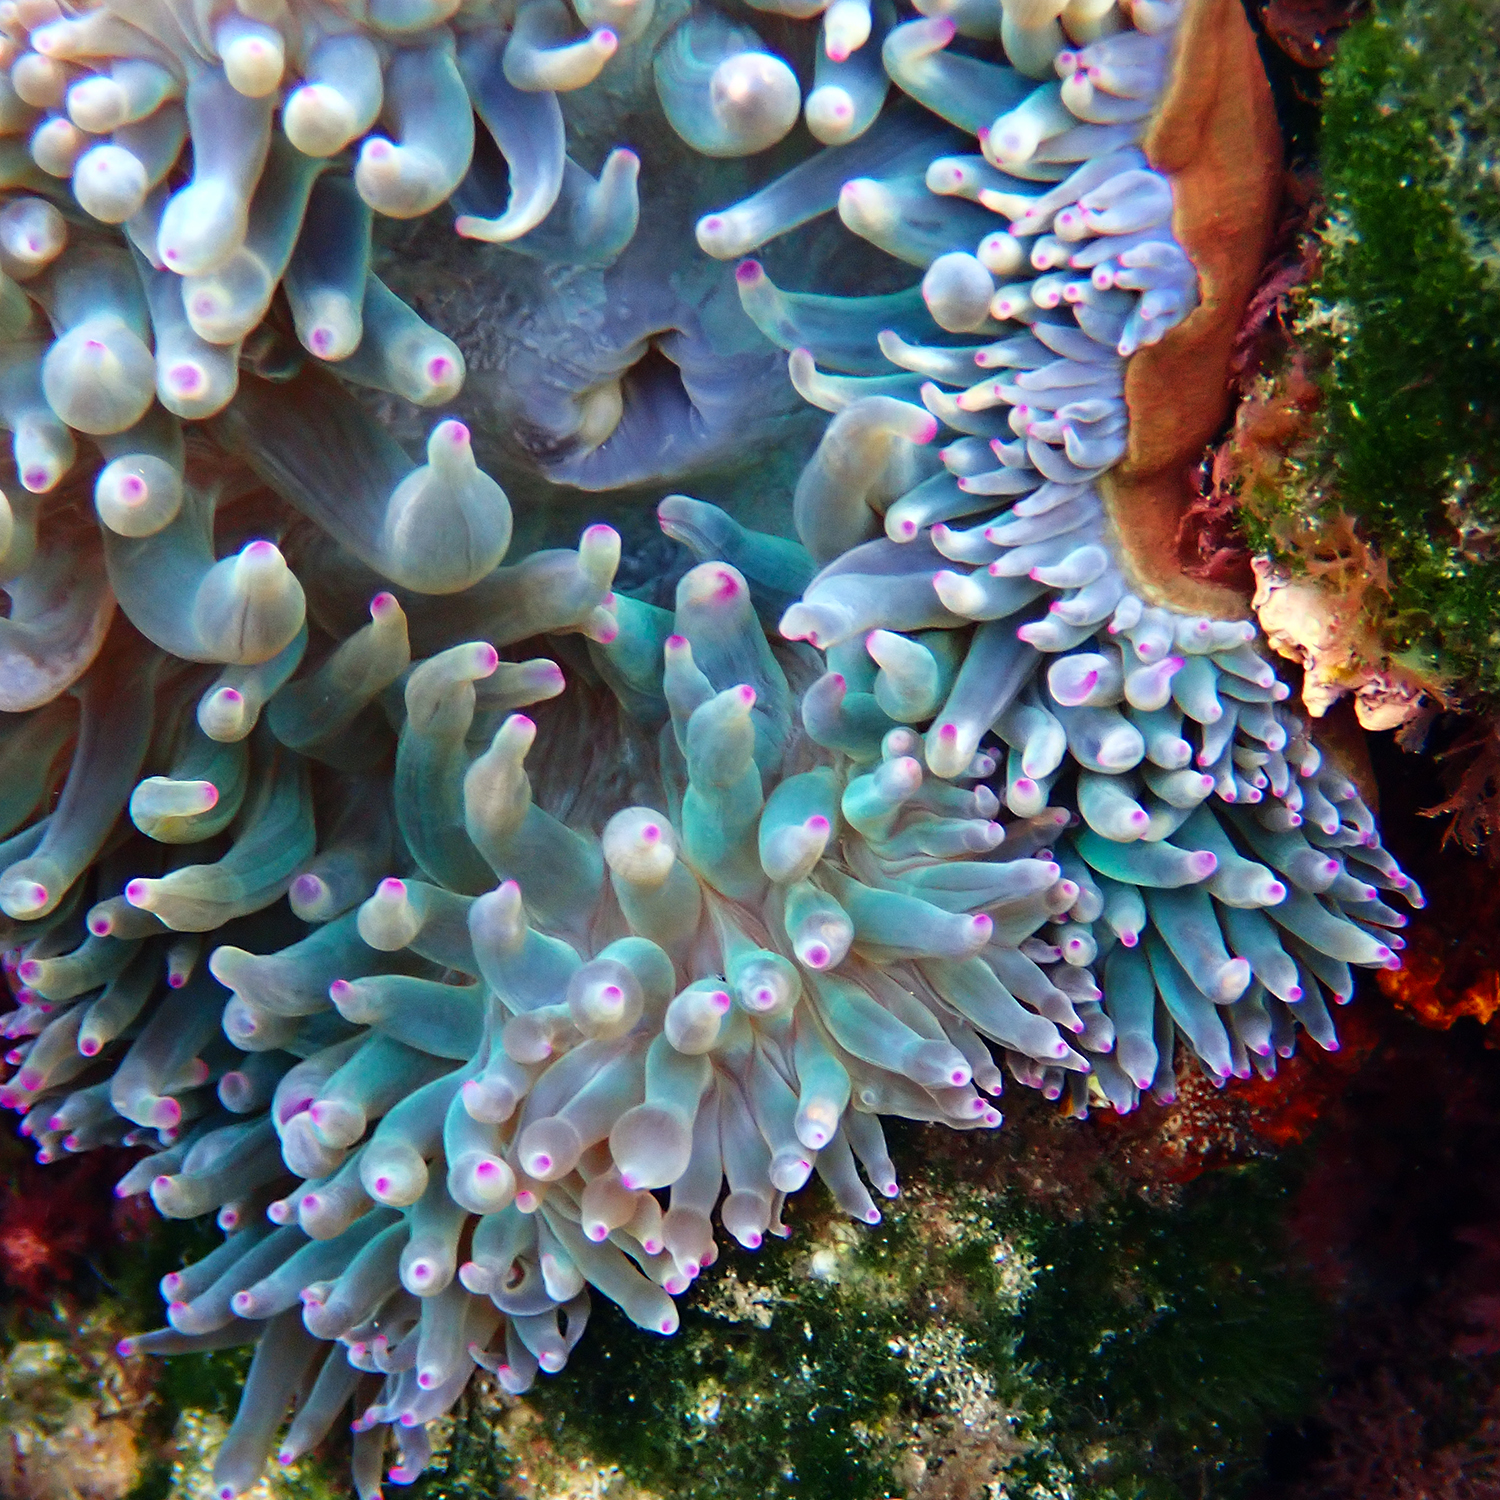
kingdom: Animalia
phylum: Cnidaria
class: Anthozoa
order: Actiniaria
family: Actiniidae
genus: Entacmaea
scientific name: Entacmaea quadricolor
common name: Bulb tentacle sea anemone
